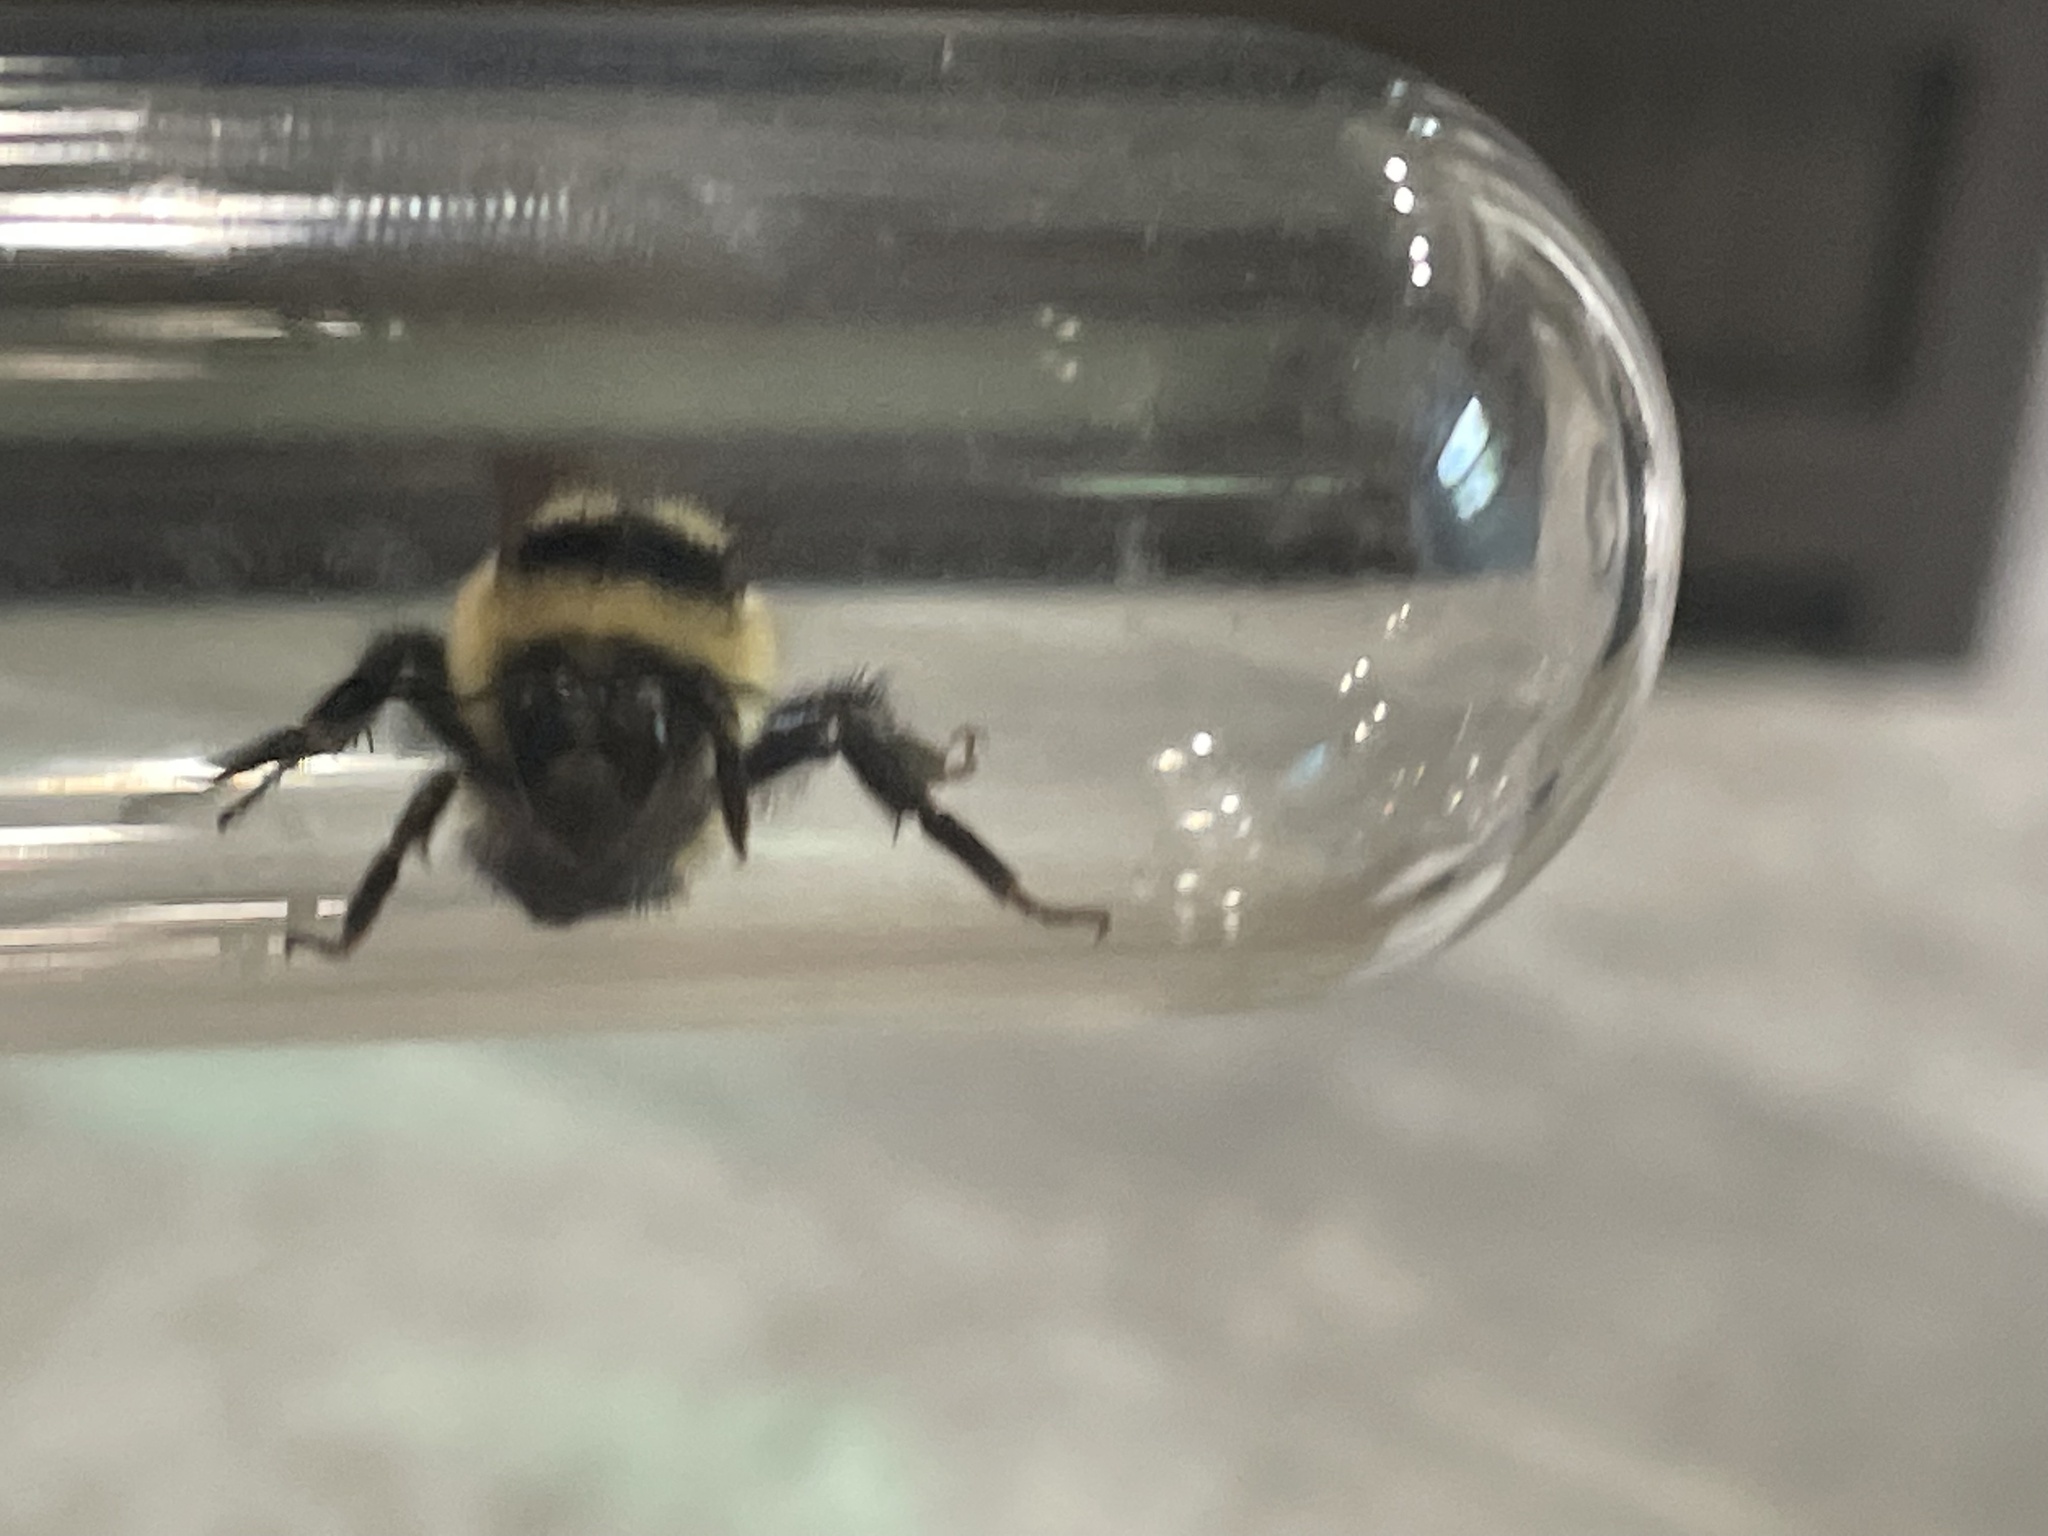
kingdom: Animalia
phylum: Arthropoda
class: Insecta
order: Hymenoptera
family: Apidae
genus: Bombus
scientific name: Bombus ternarius
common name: Tri-colored bumble bee
